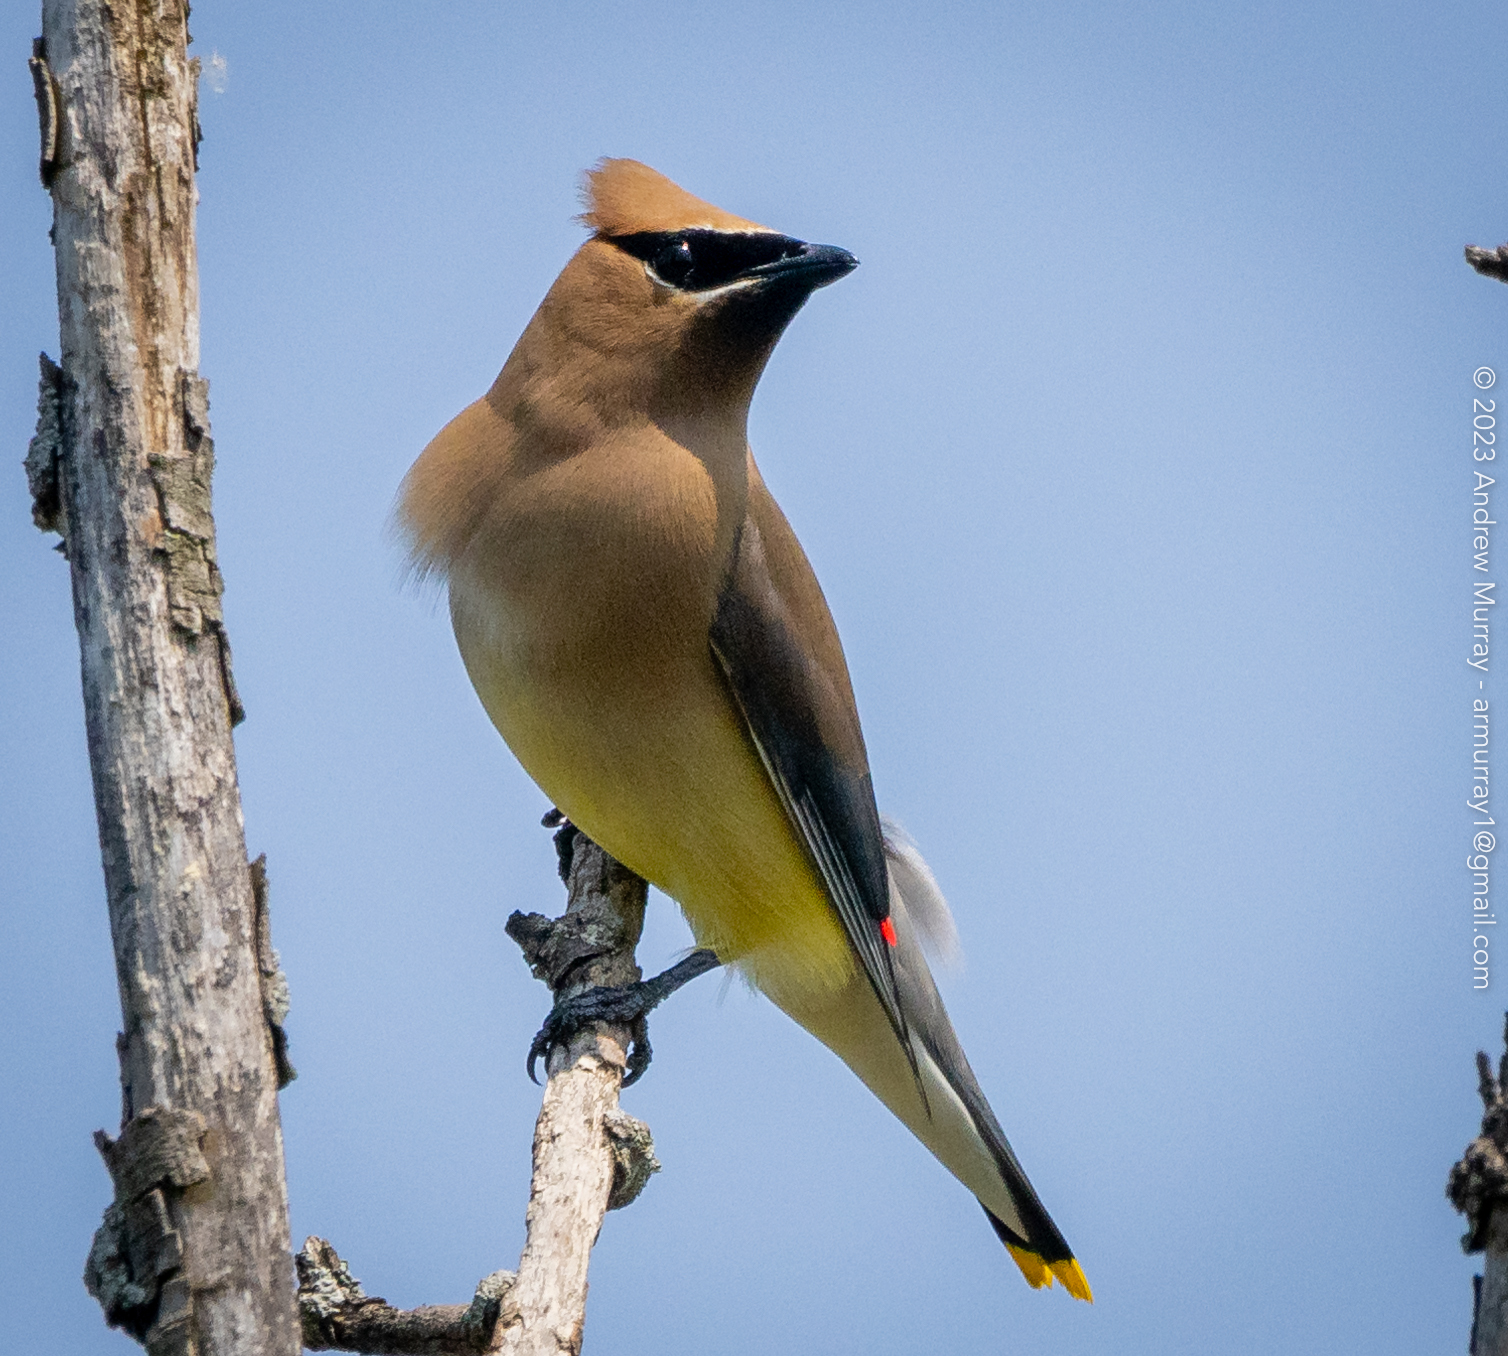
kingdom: Animalia
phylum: Chordata
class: Aves
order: Passeriformes
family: Bombycillidae
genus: Bombycilla
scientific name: Bombycilla cedrorum
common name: Cedar waxwing
